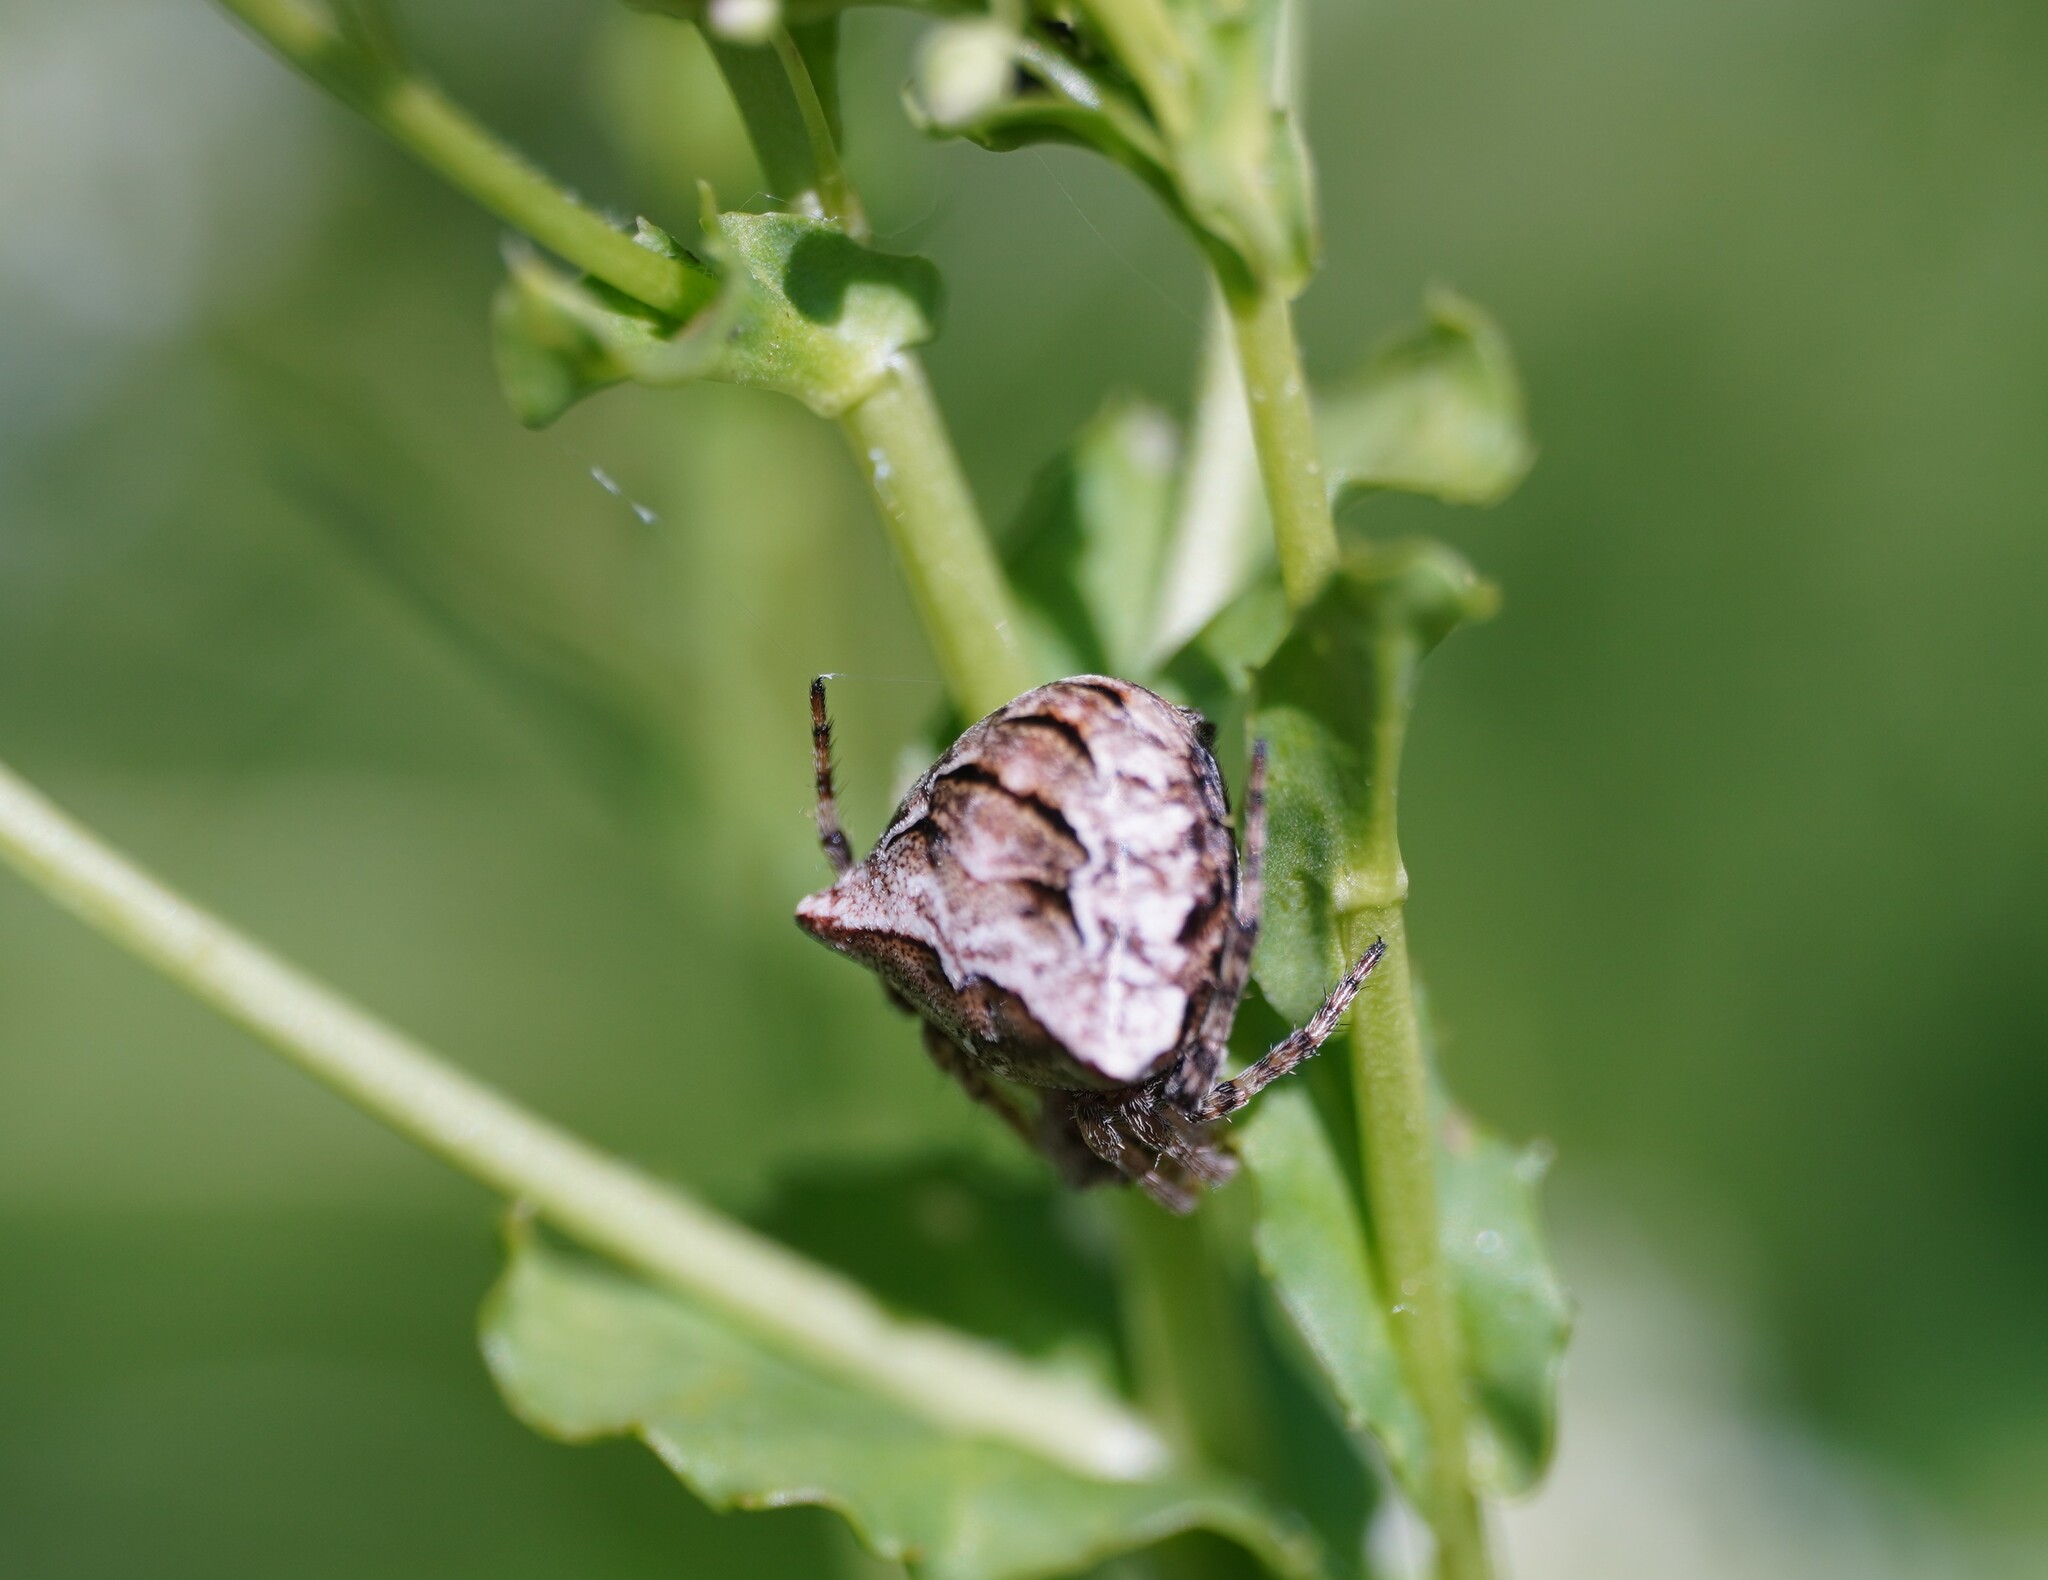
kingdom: Animalia
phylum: Arthropoda
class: Arachnida
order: Araneae
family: Araneidae
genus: Gibbaranea
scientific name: Gibbaranea bituberculata
